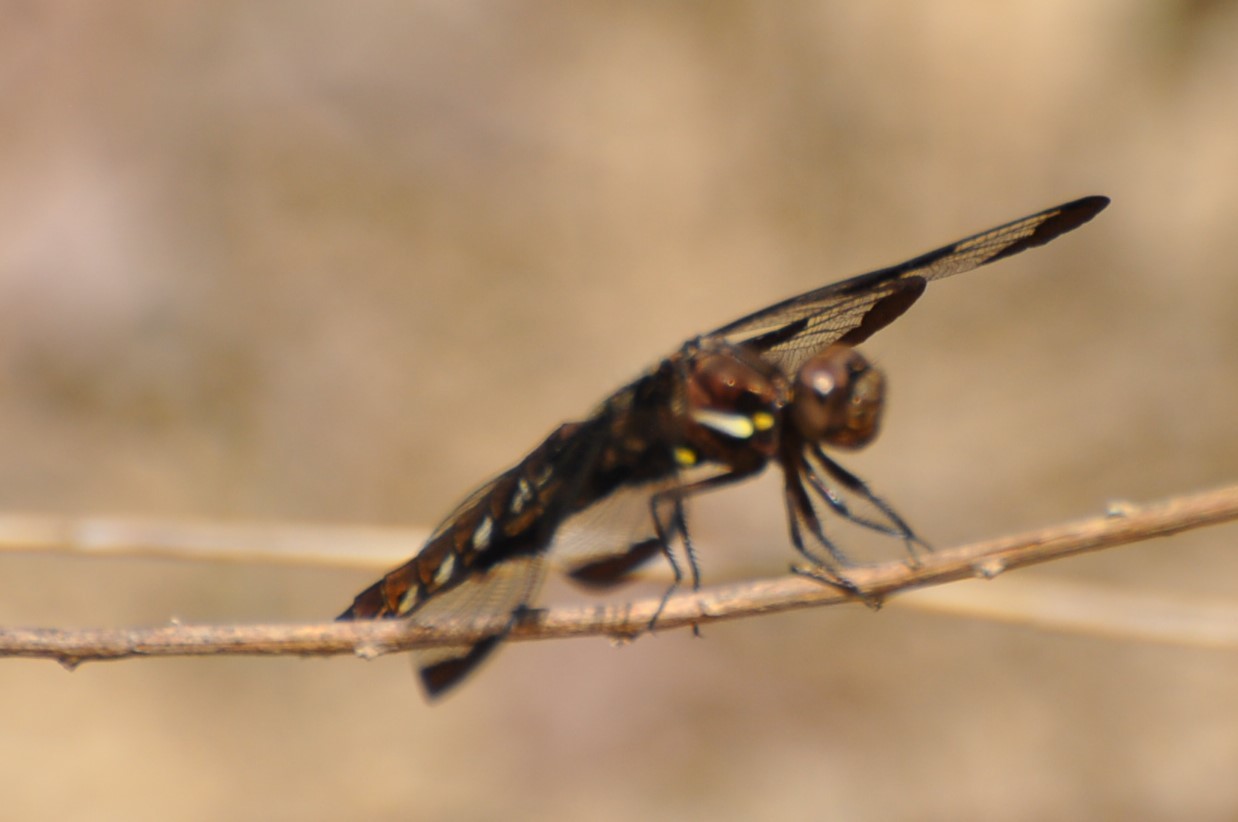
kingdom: Animalia
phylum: Arthropoda
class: Insecta
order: Odonata
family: Libellulidae
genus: Plathemis
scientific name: Plathemis lydia
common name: Common whitetail
